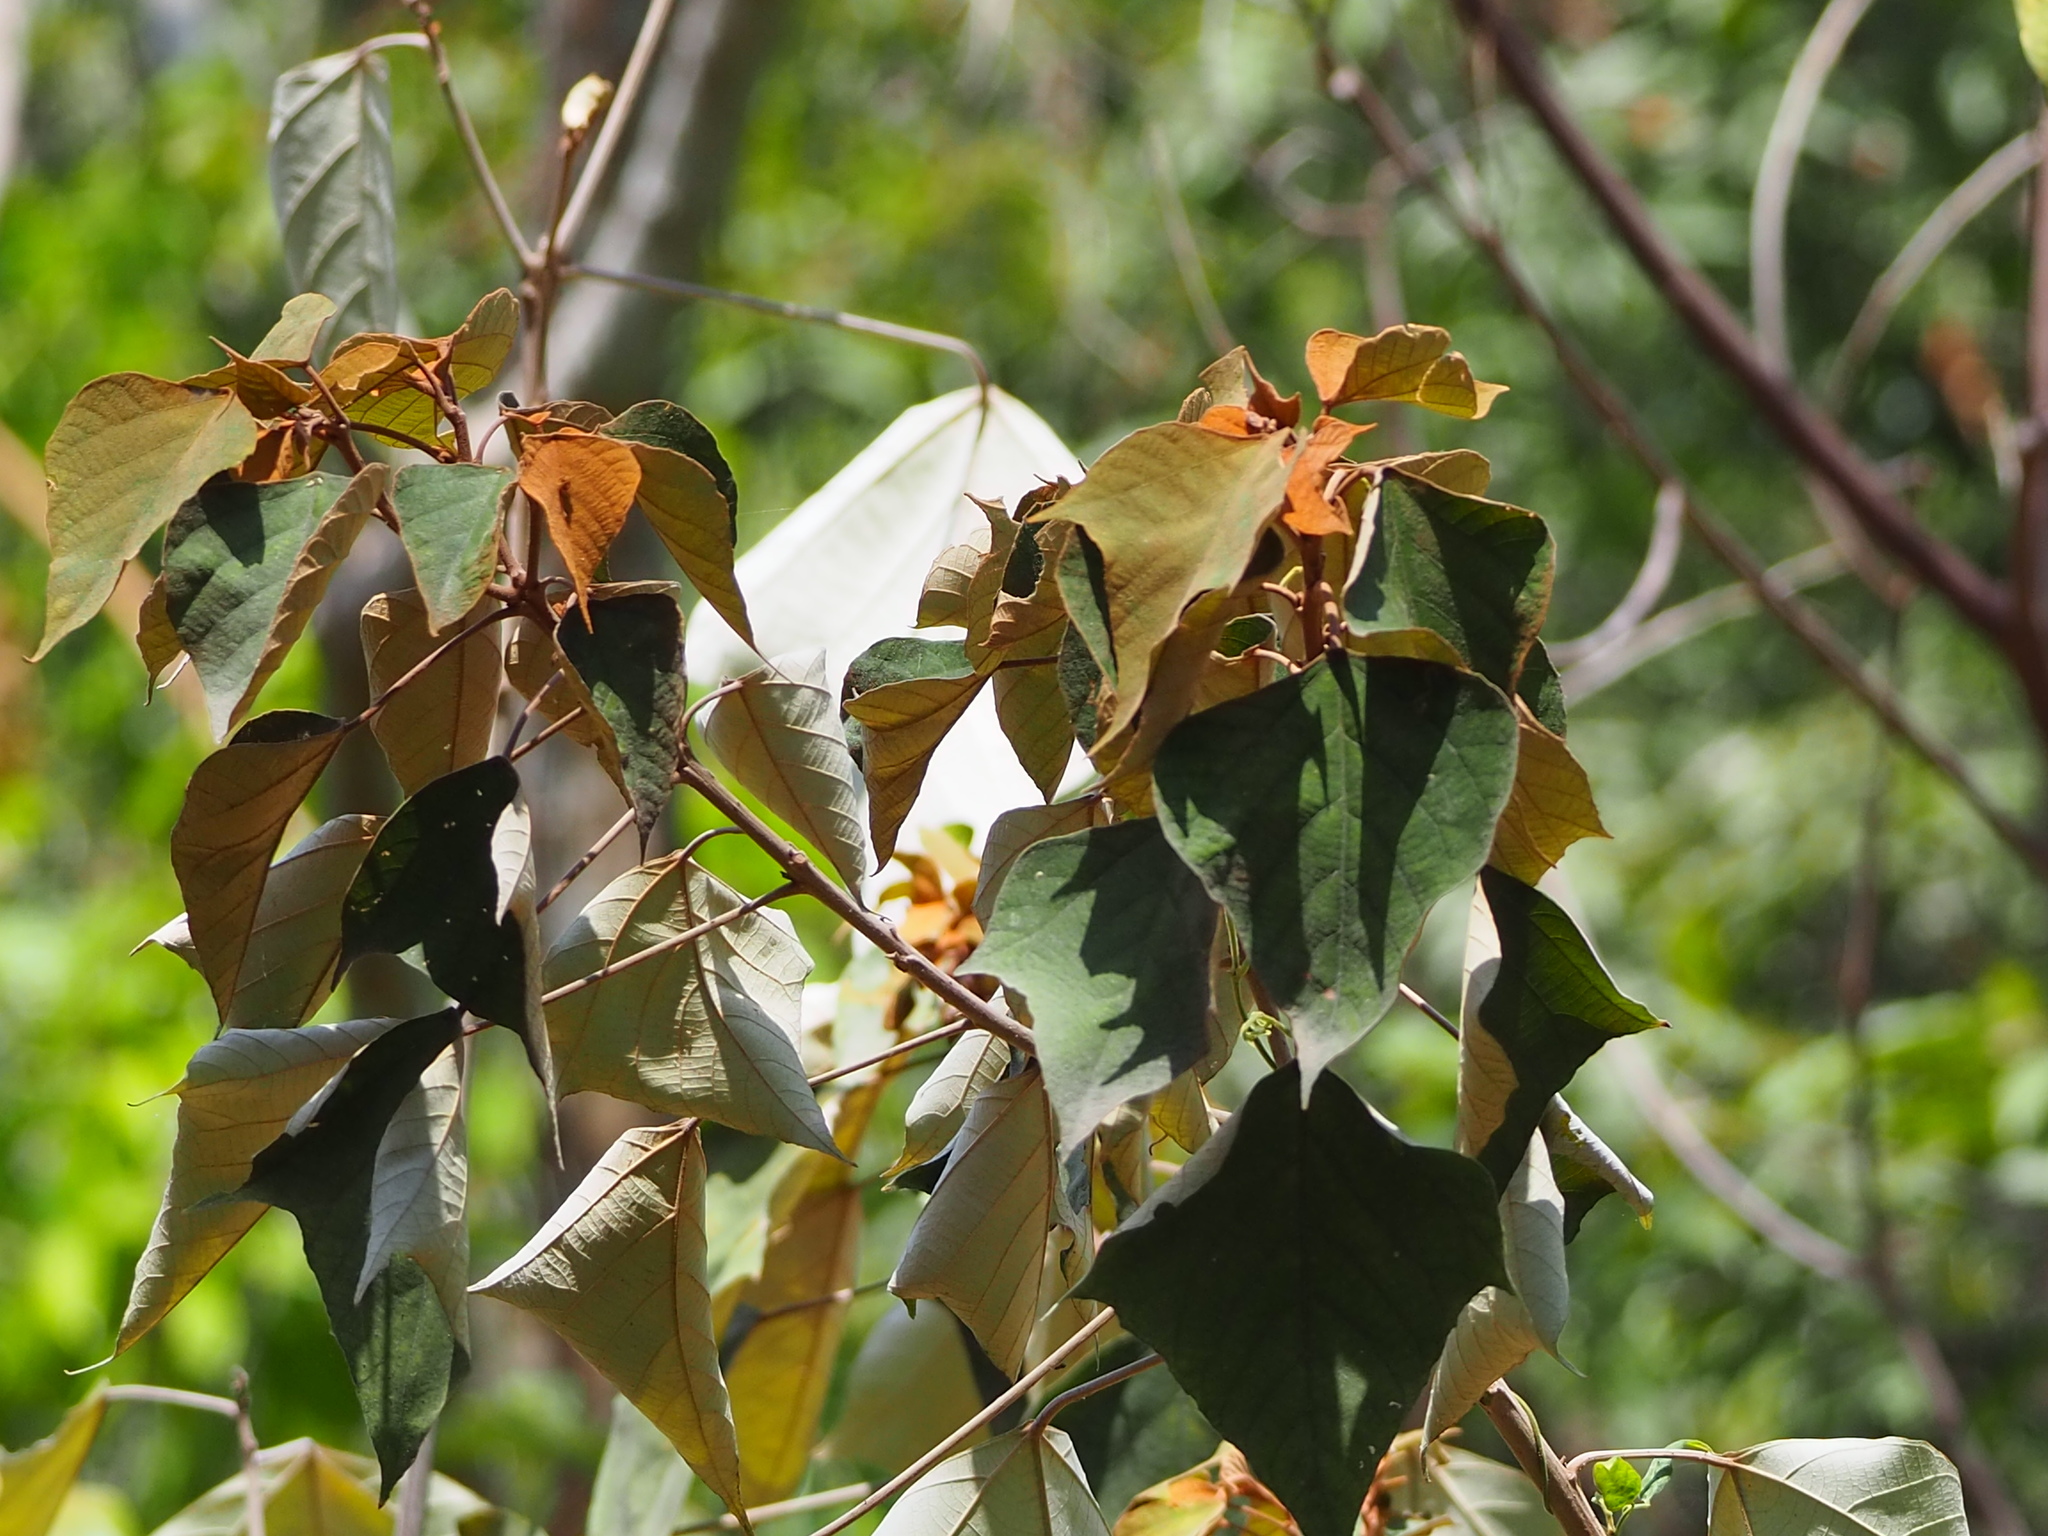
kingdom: Plantae
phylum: Tracheophyta
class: Magnoliopsida
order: Malpighiales
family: Euphorbiaceae
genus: Mallotus
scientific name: Mallotus paniculatus
